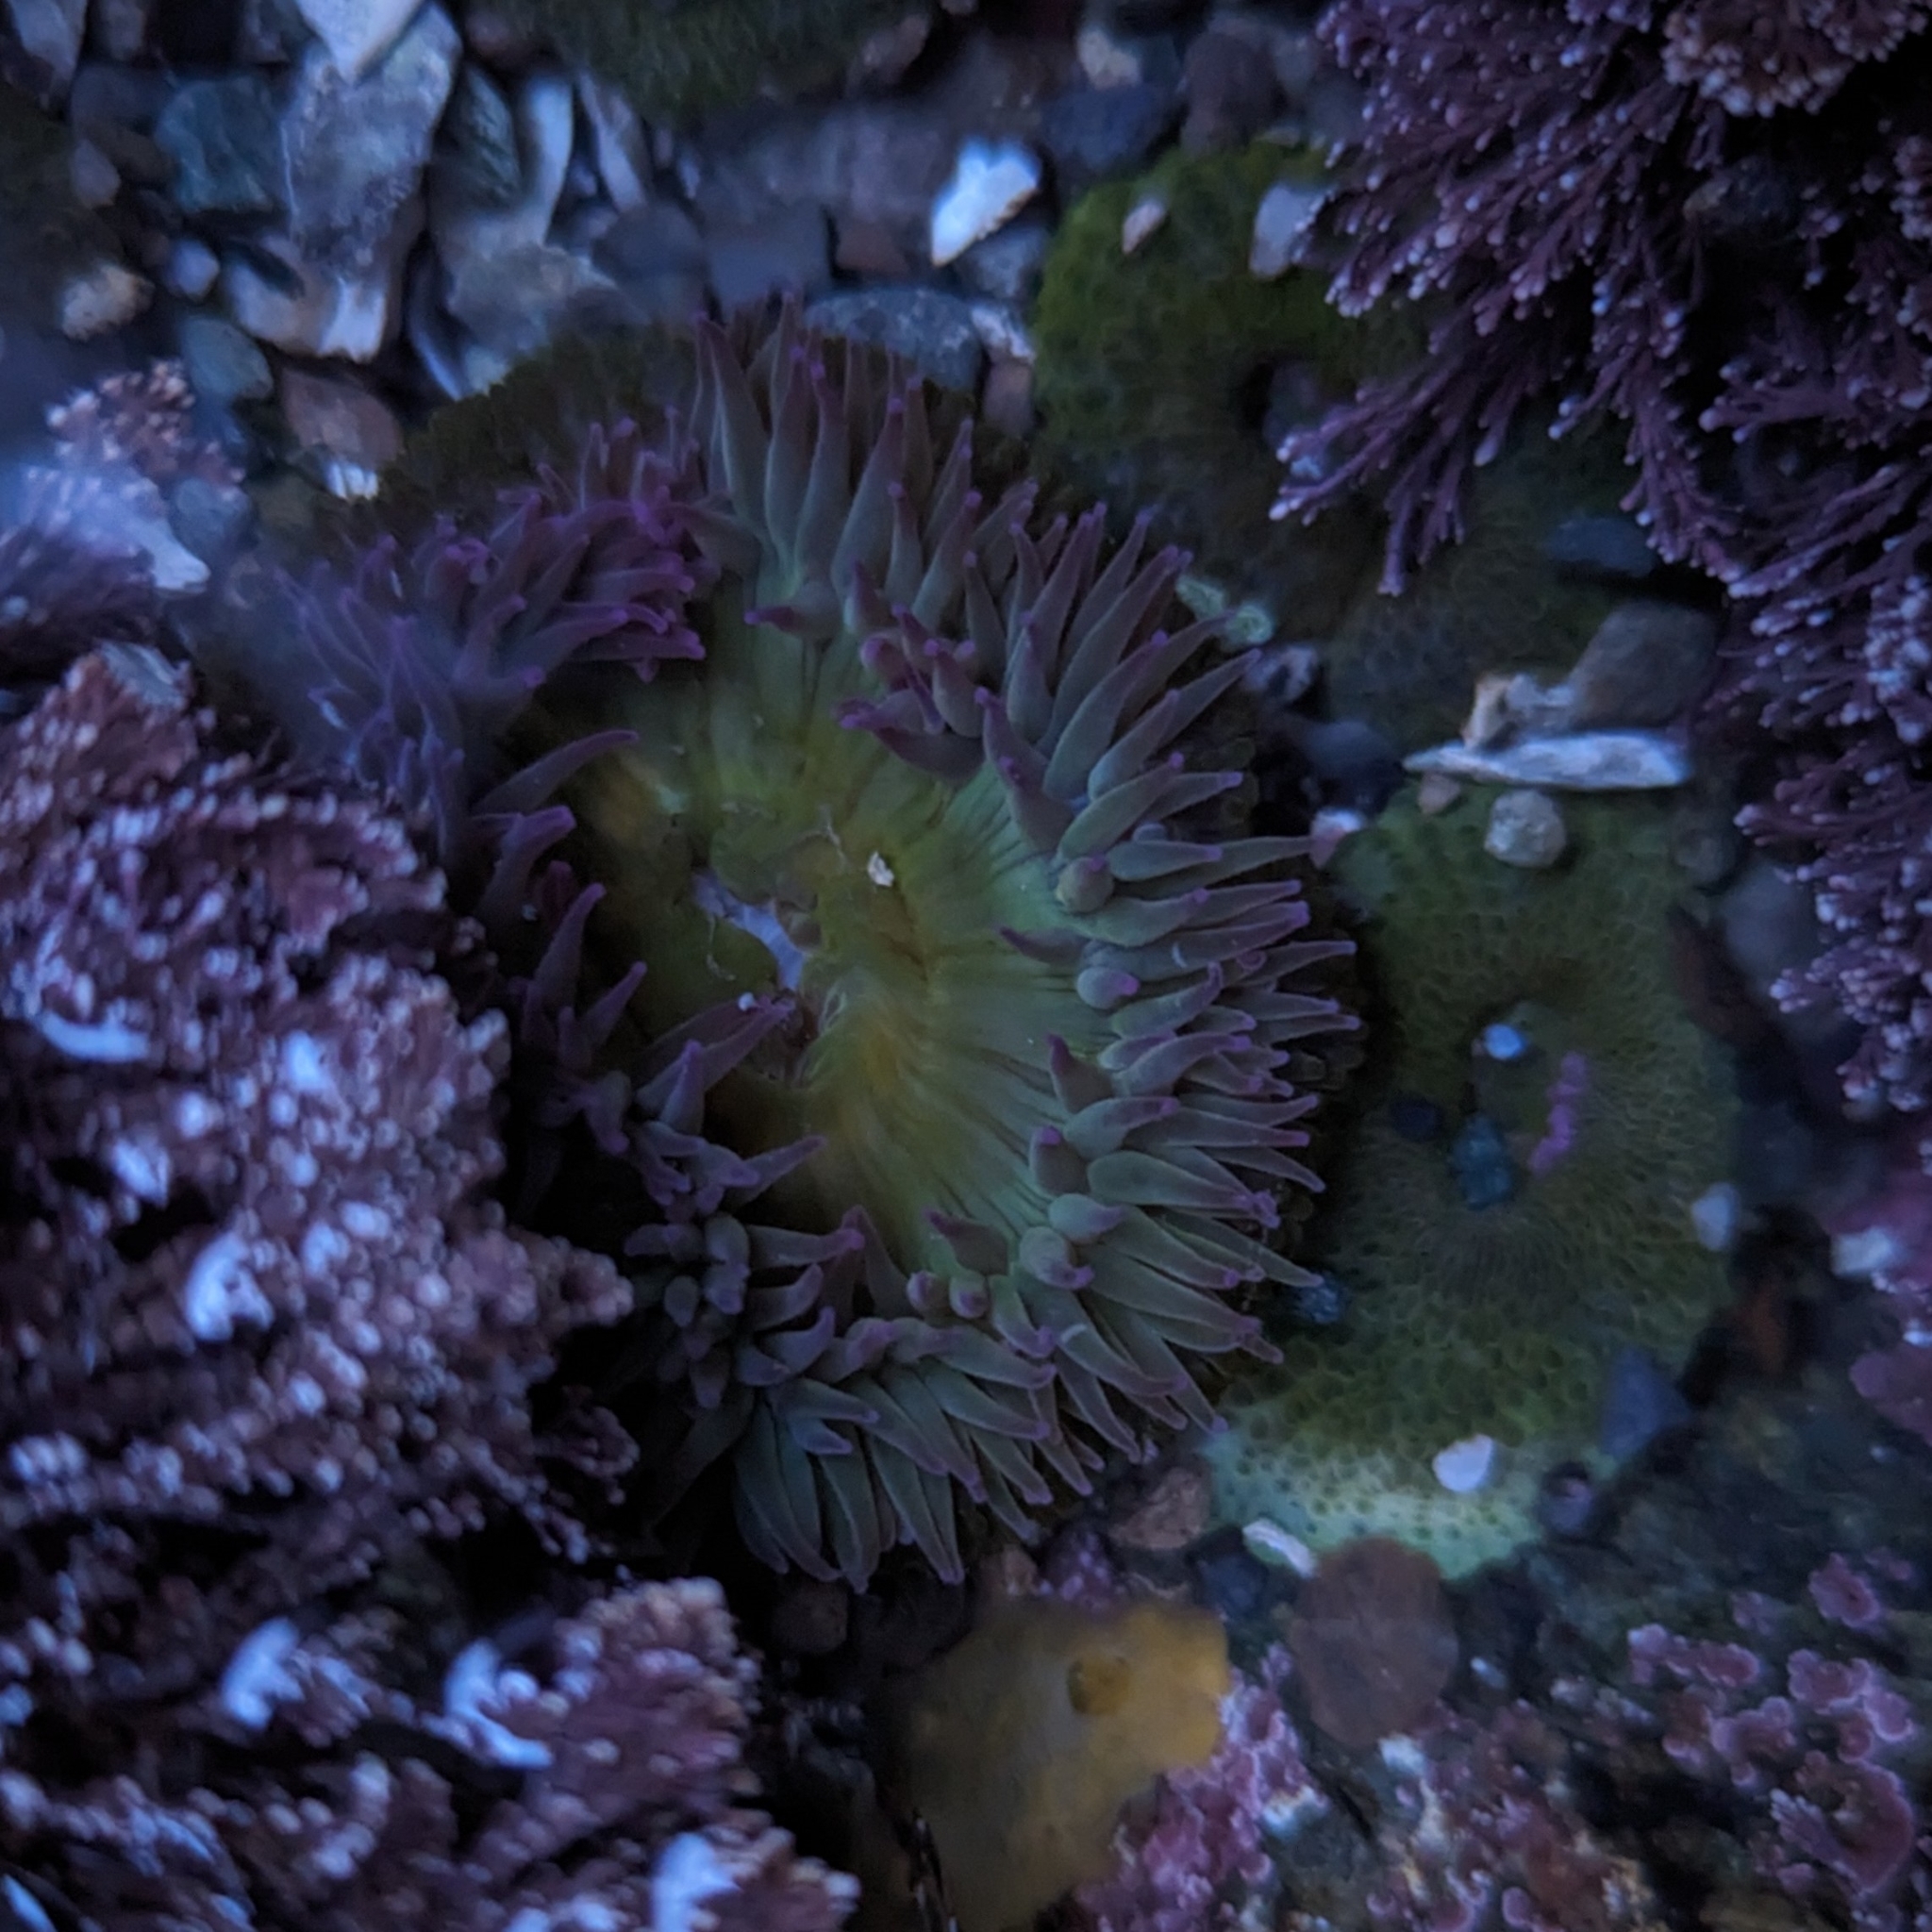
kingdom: Animalia
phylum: Cnidaria
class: Anthozoa
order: Actiniaria
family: Actiniidae
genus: Anthopleura
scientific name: Anthopleura elegantissima
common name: Clonal anemone
